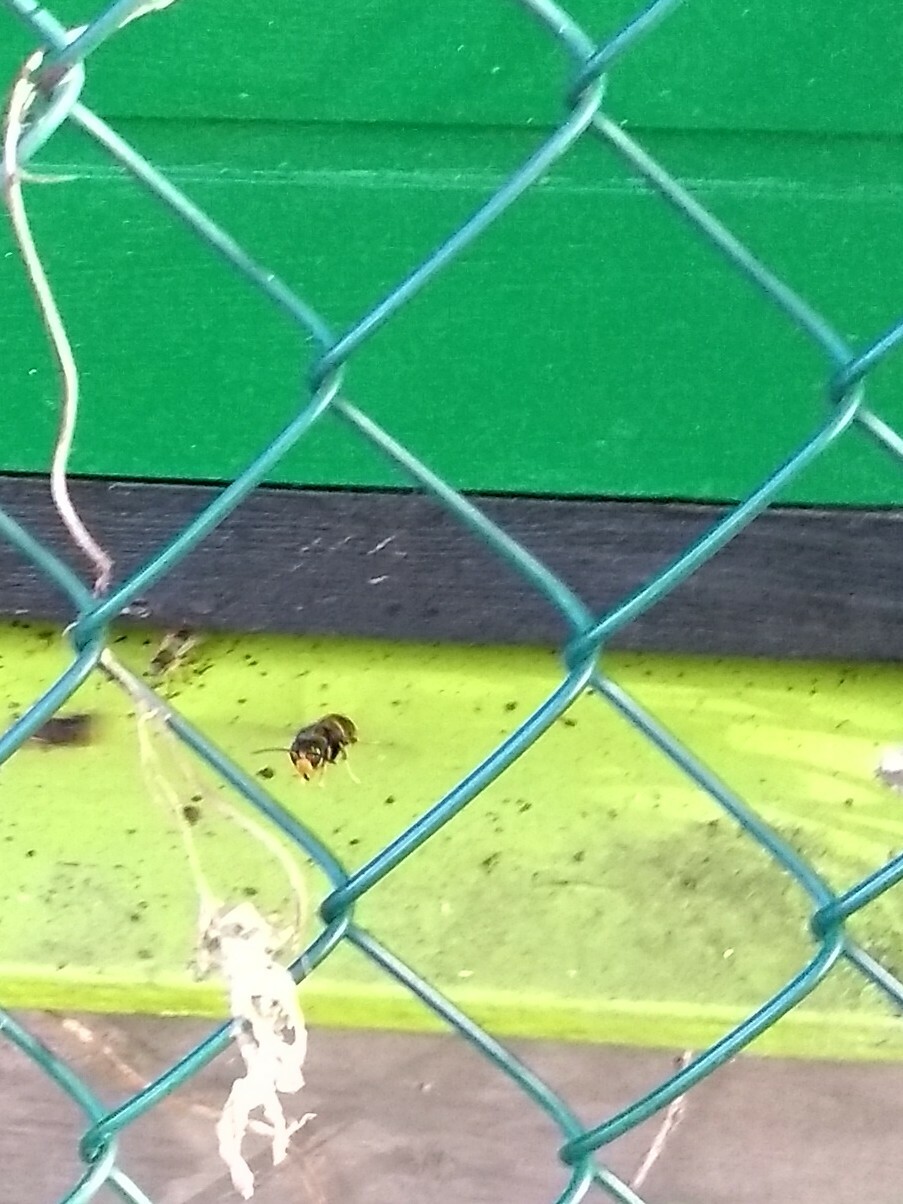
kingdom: Animalia
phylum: Arthropoda
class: Insecta
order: Hymenoptera
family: Vespidae
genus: Vespa
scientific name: Vespa velutina
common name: Asian hornet
